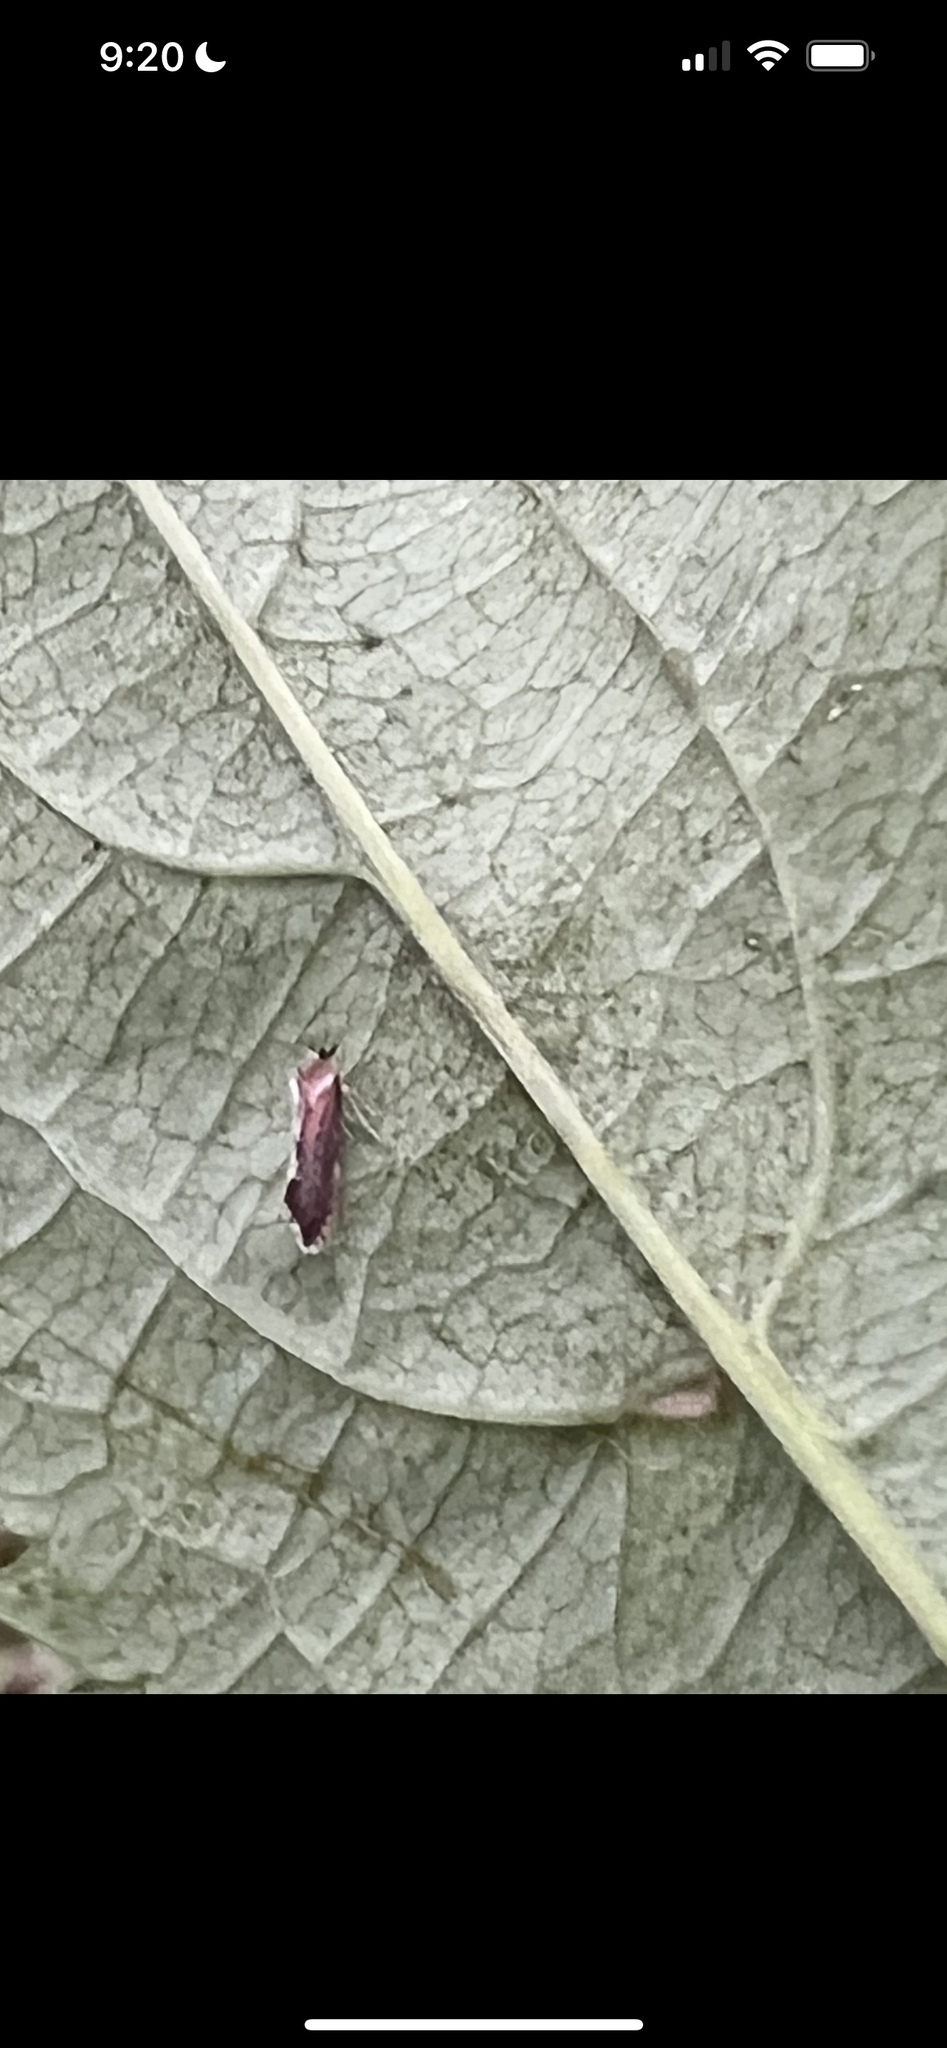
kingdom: Animalia
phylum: Arthropoda
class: Insecta
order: Hemiptera
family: Derbidae
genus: Patara
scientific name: Patara vanduzei
